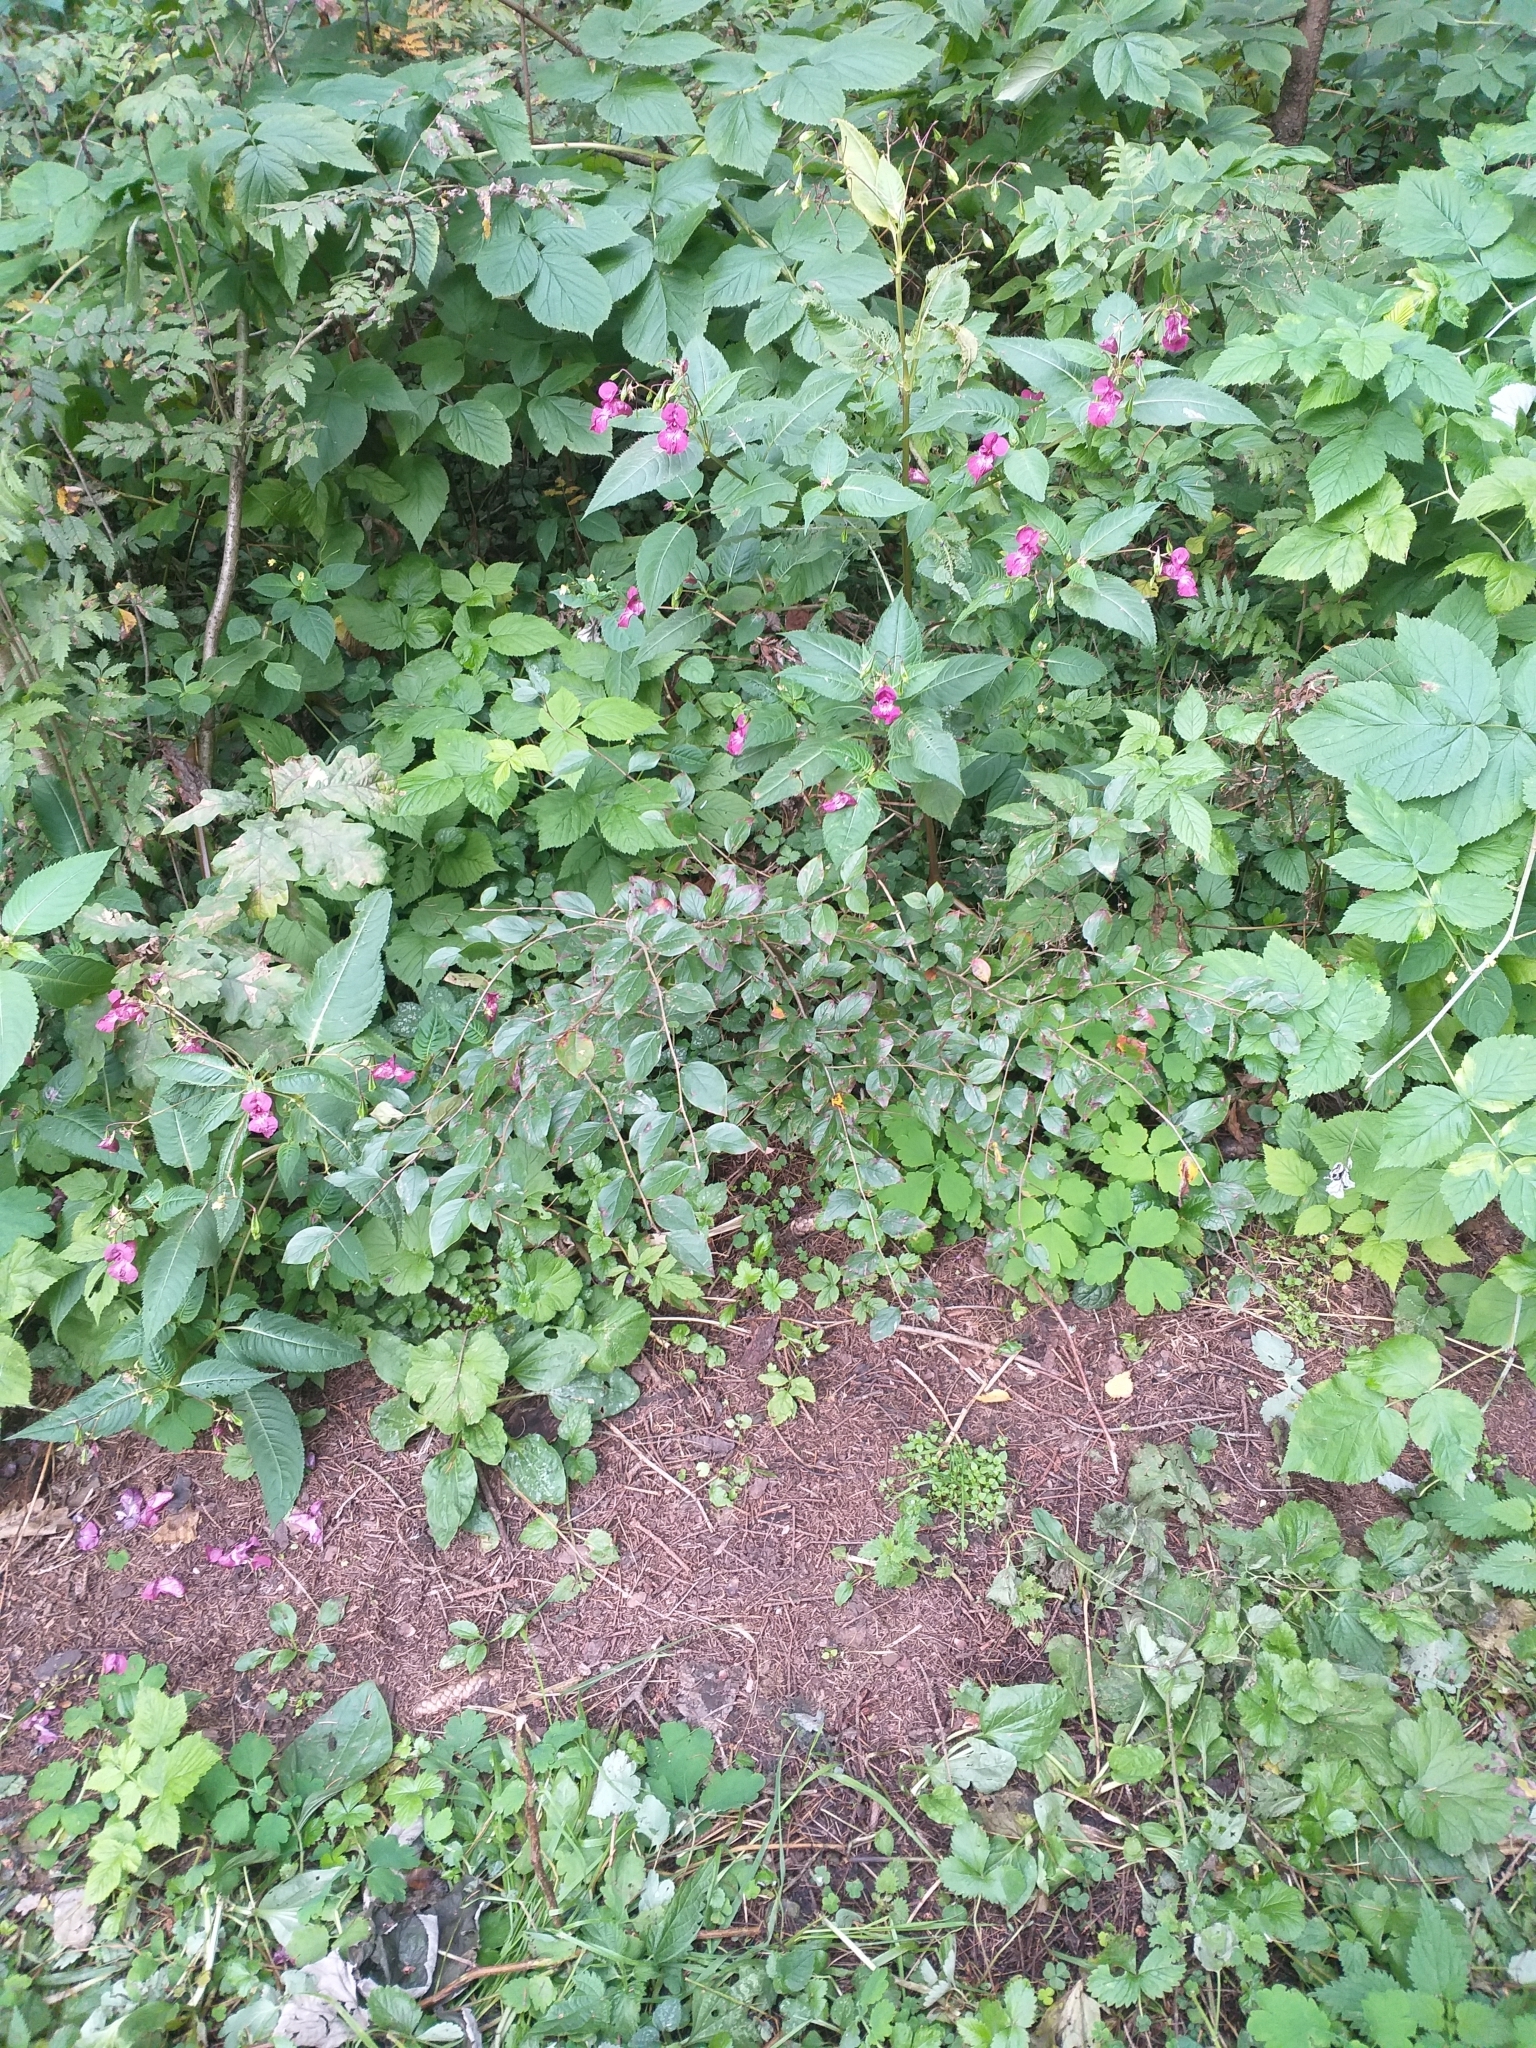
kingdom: Plantae
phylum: Tracheophyta
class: Magnoliopsida
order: Rosales
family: Rosaceae
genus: Cotoneaster
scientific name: Cotoneaster acutifolius
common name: Peking cotoneaster
